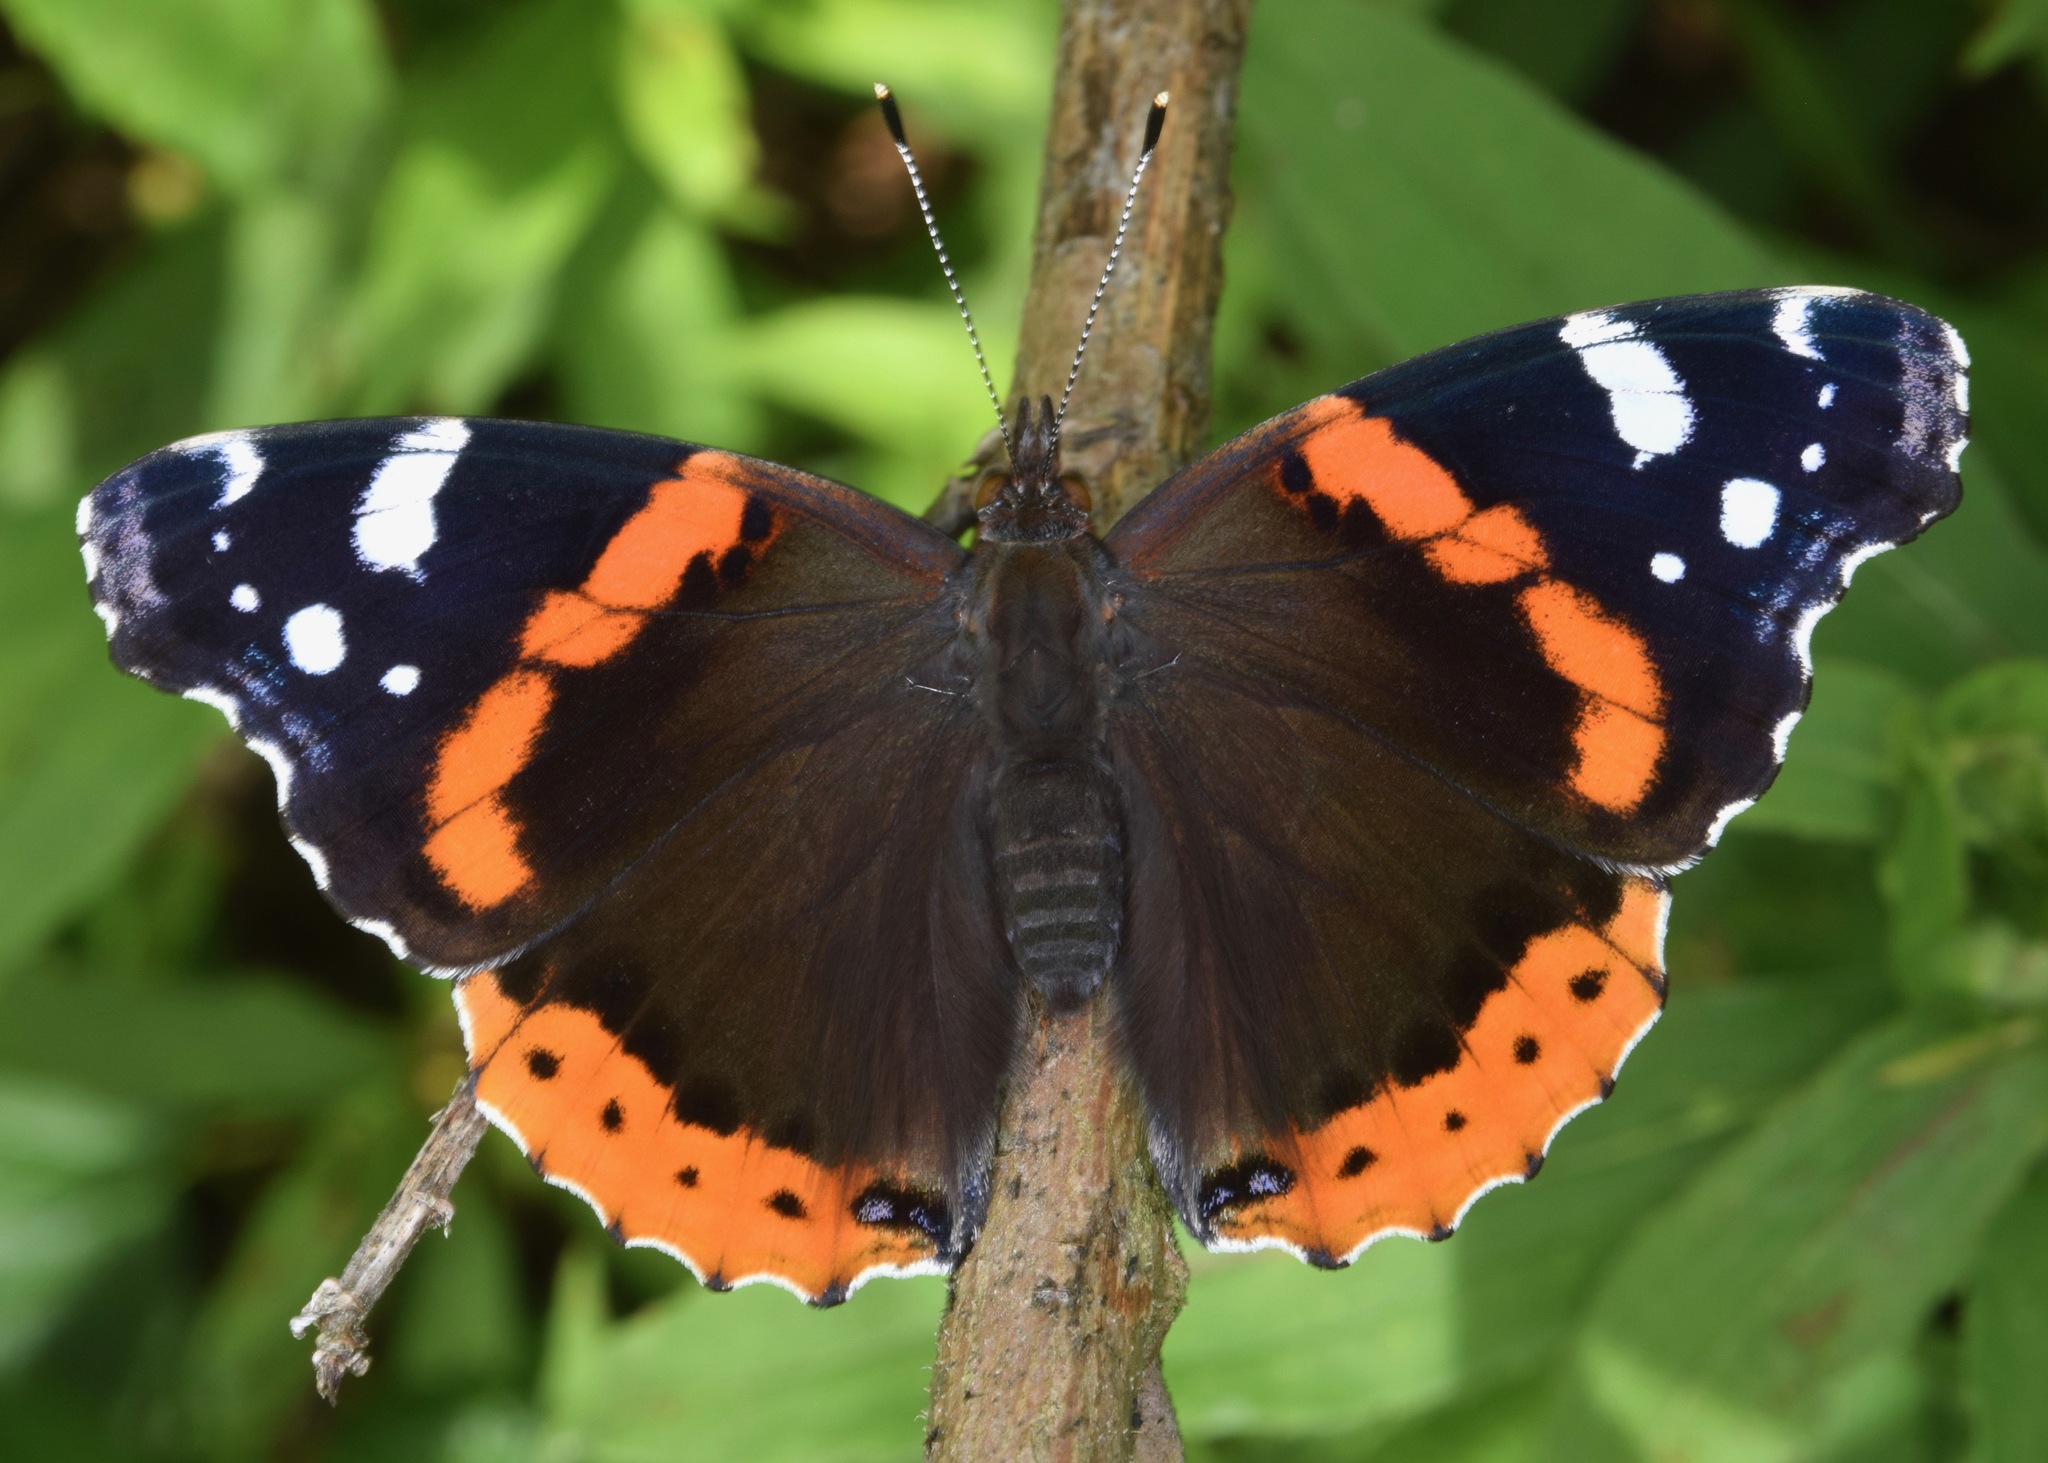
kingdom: Animalia
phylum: Arthropoda
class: Insecta
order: Lepidoptera
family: Nymphalidae
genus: Vanessa
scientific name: Vanessa atalanta
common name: Red admiral
